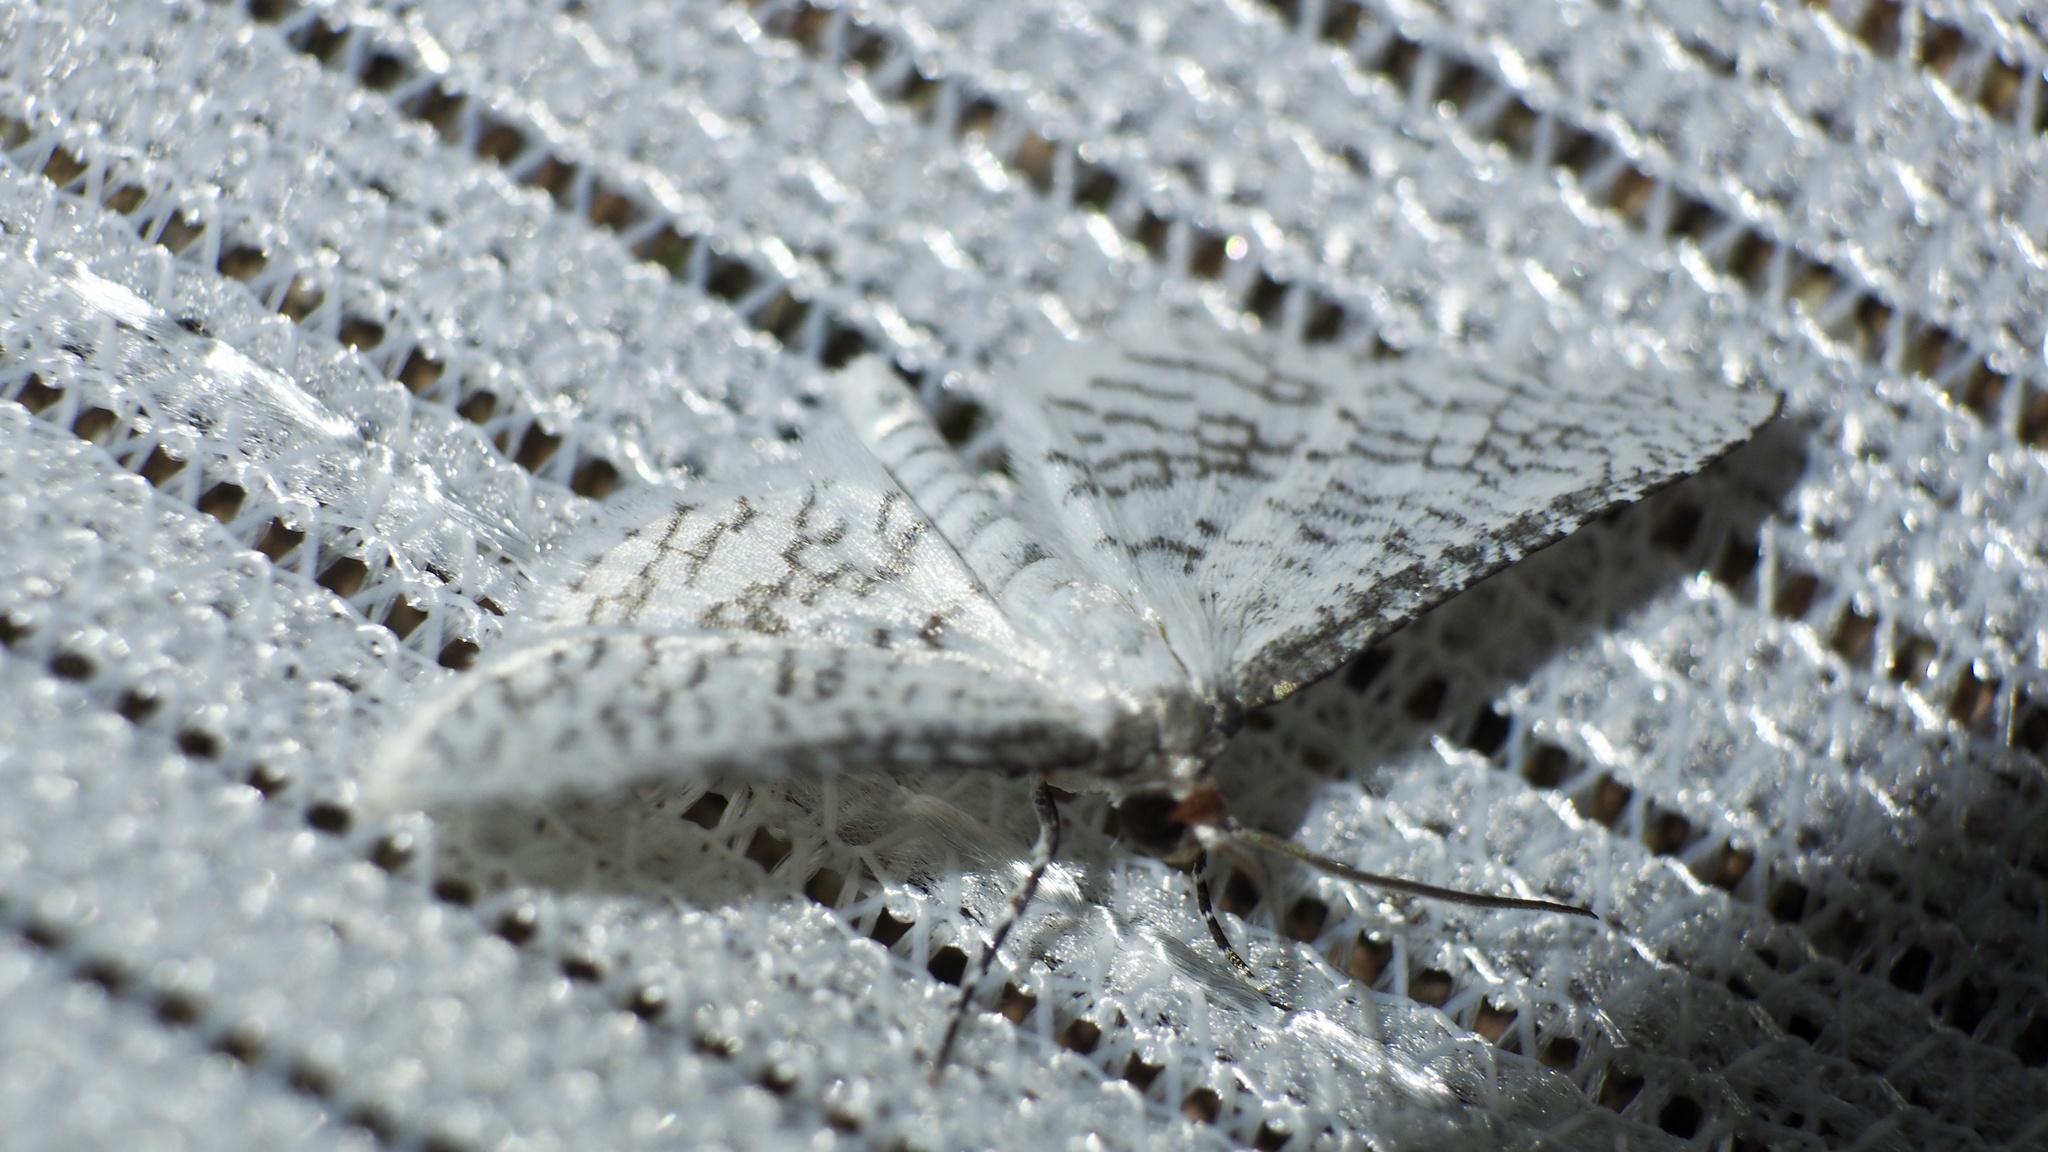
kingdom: Animalia
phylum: Arthropoda
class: Insecta
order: Lepidoptera
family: Thyrididae
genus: Rhodoneura
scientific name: Rhodoneura sugitanii
